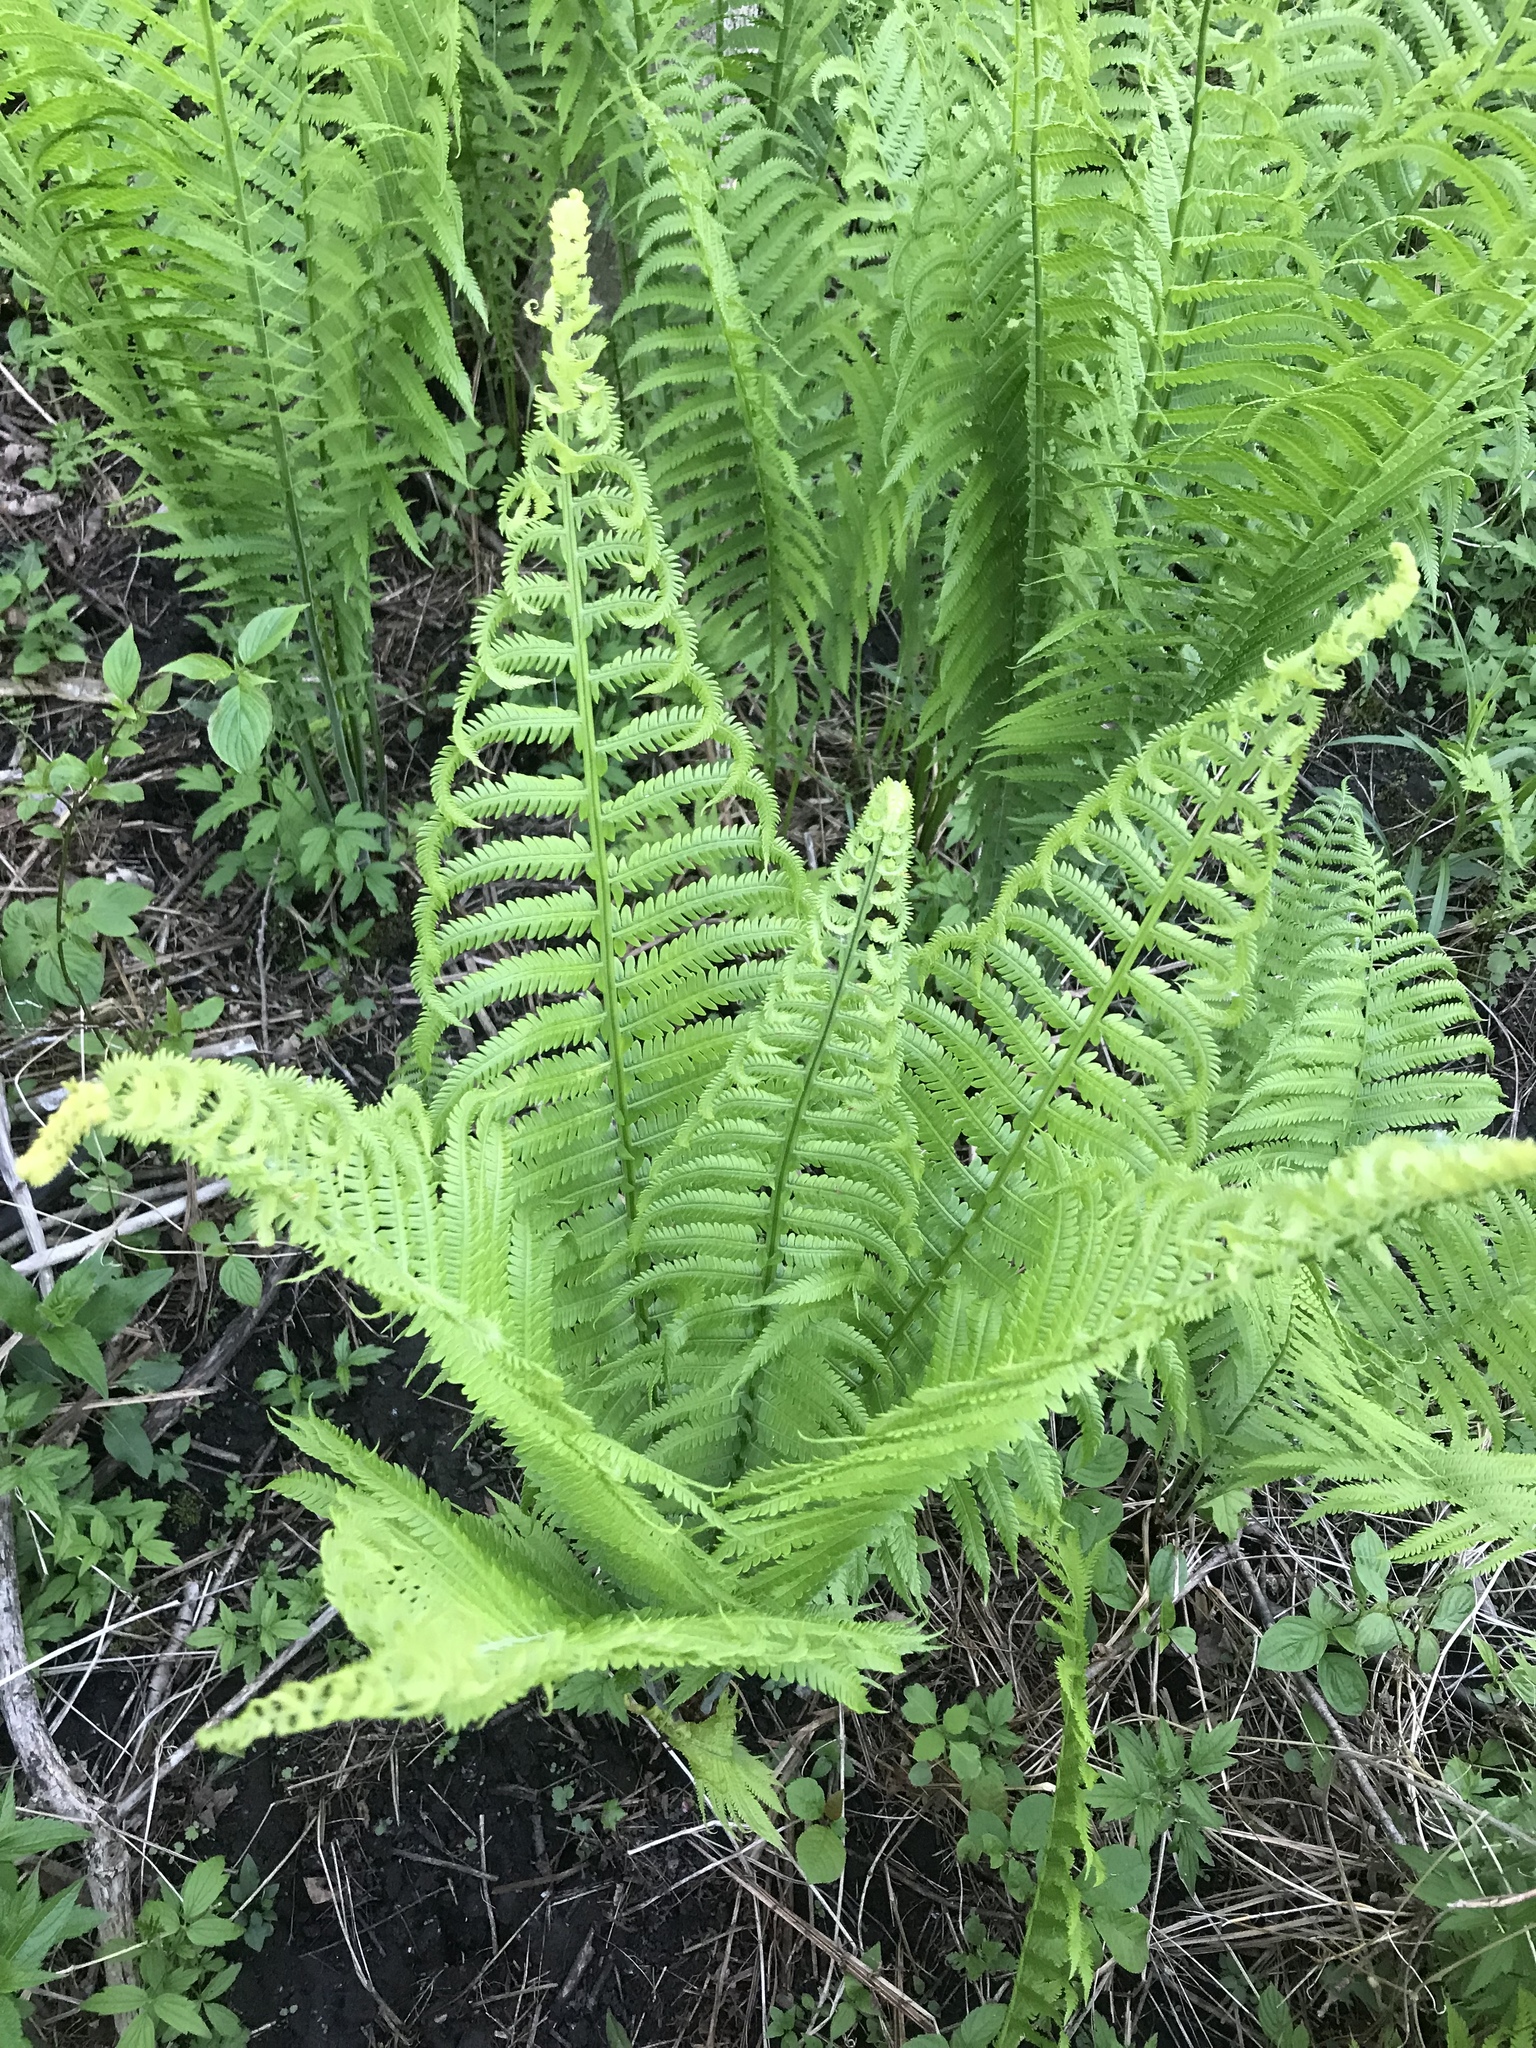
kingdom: Plantae
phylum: Tracheophyta
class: Polypodiopsida
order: Polypodiales
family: Onocleaceae
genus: Matteuccia
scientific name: Matteuccia struthiopteris
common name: Ostrich fern
